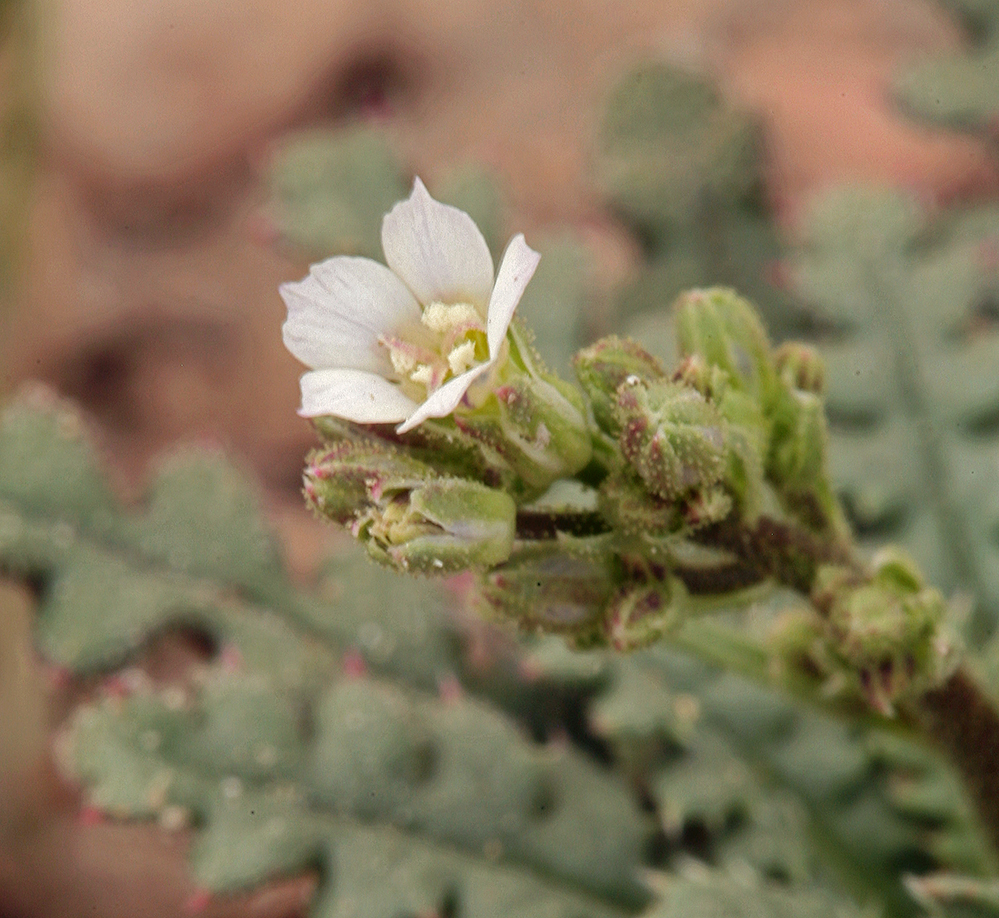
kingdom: Plantae
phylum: Tracheophyta
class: Magnoliopsida
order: Ericales
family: Polemoniaceae
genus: Aliciella
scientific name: Aliciella leptomeria
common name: Sand gilia
